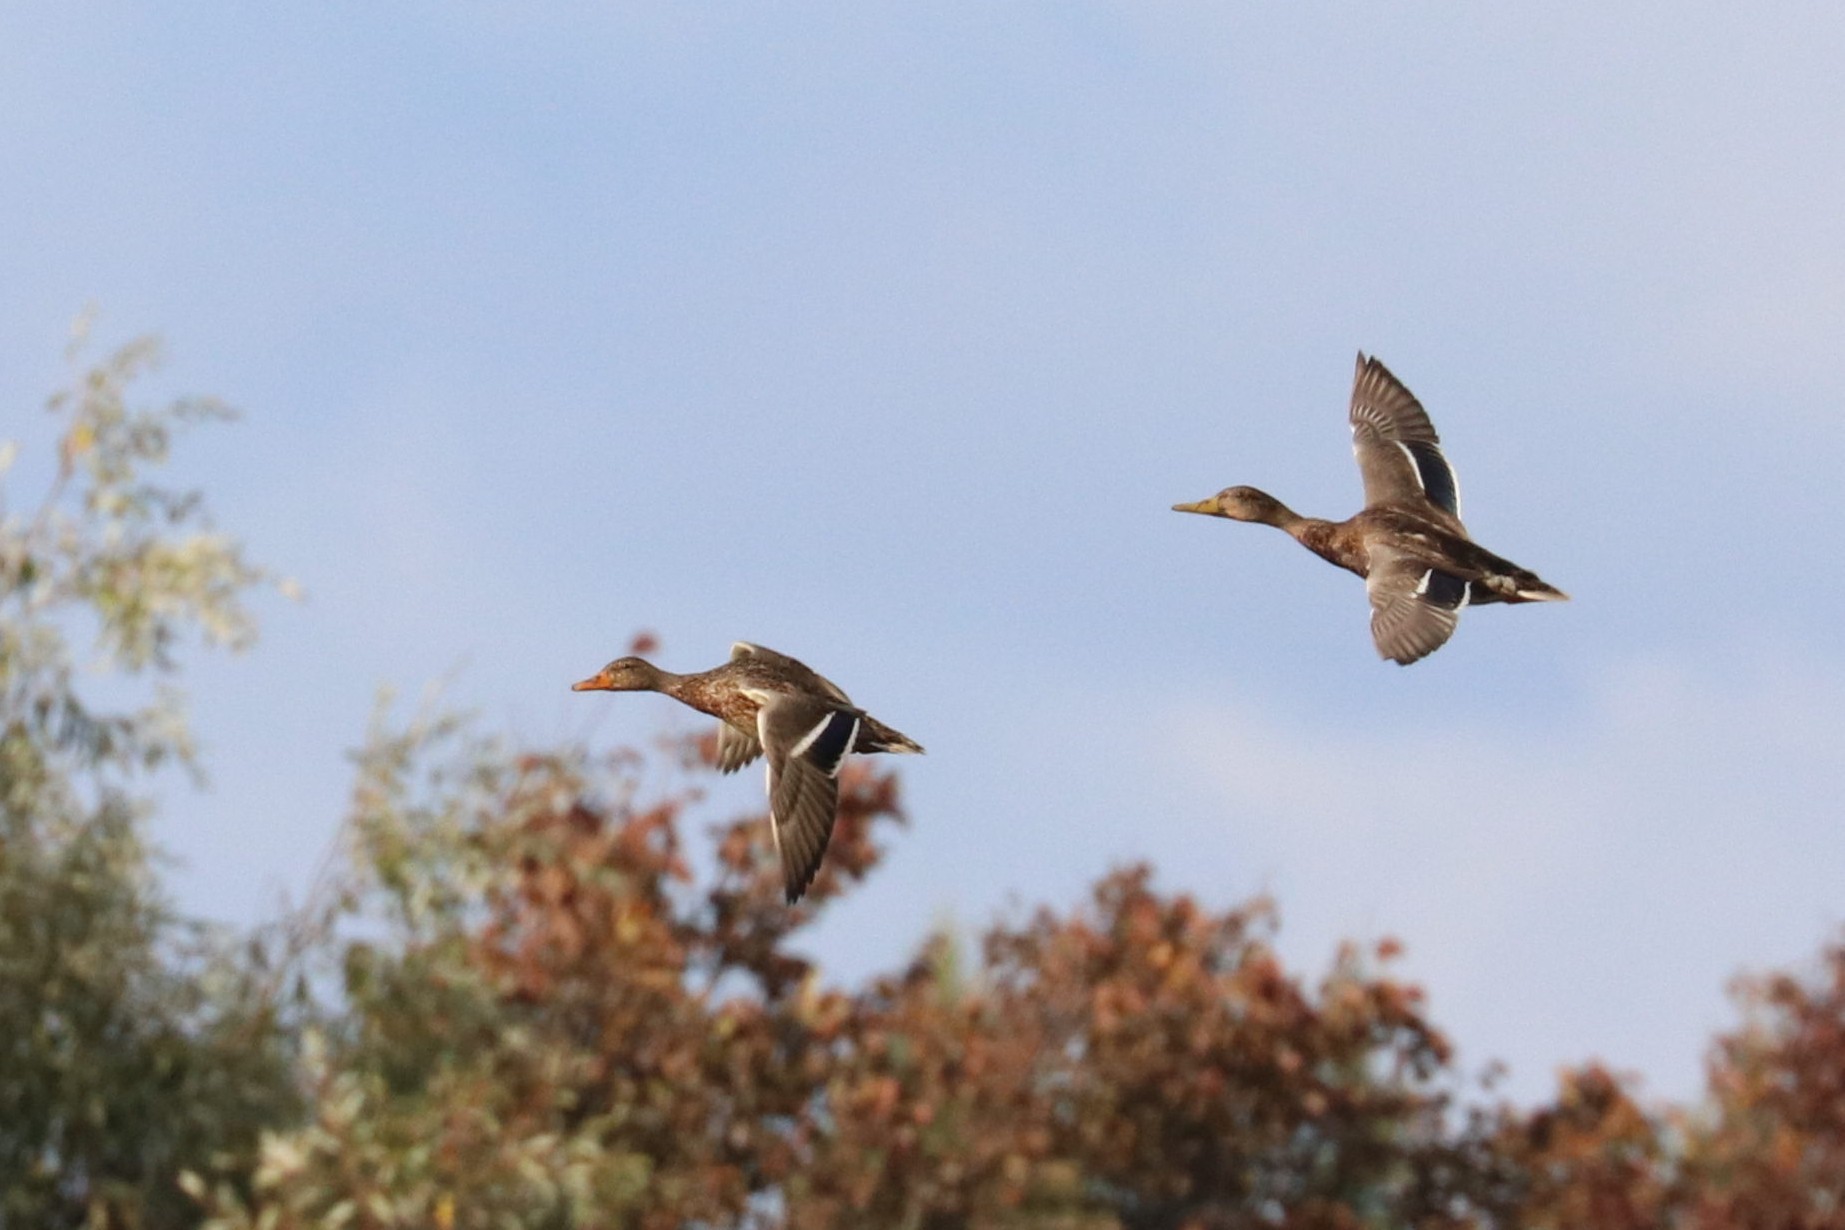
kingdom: Animalia
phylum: Chordata
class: Aves
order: Anseriformes
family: Anatidae
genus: Anas
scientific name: Anas platyrhynchos
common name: Mallard
